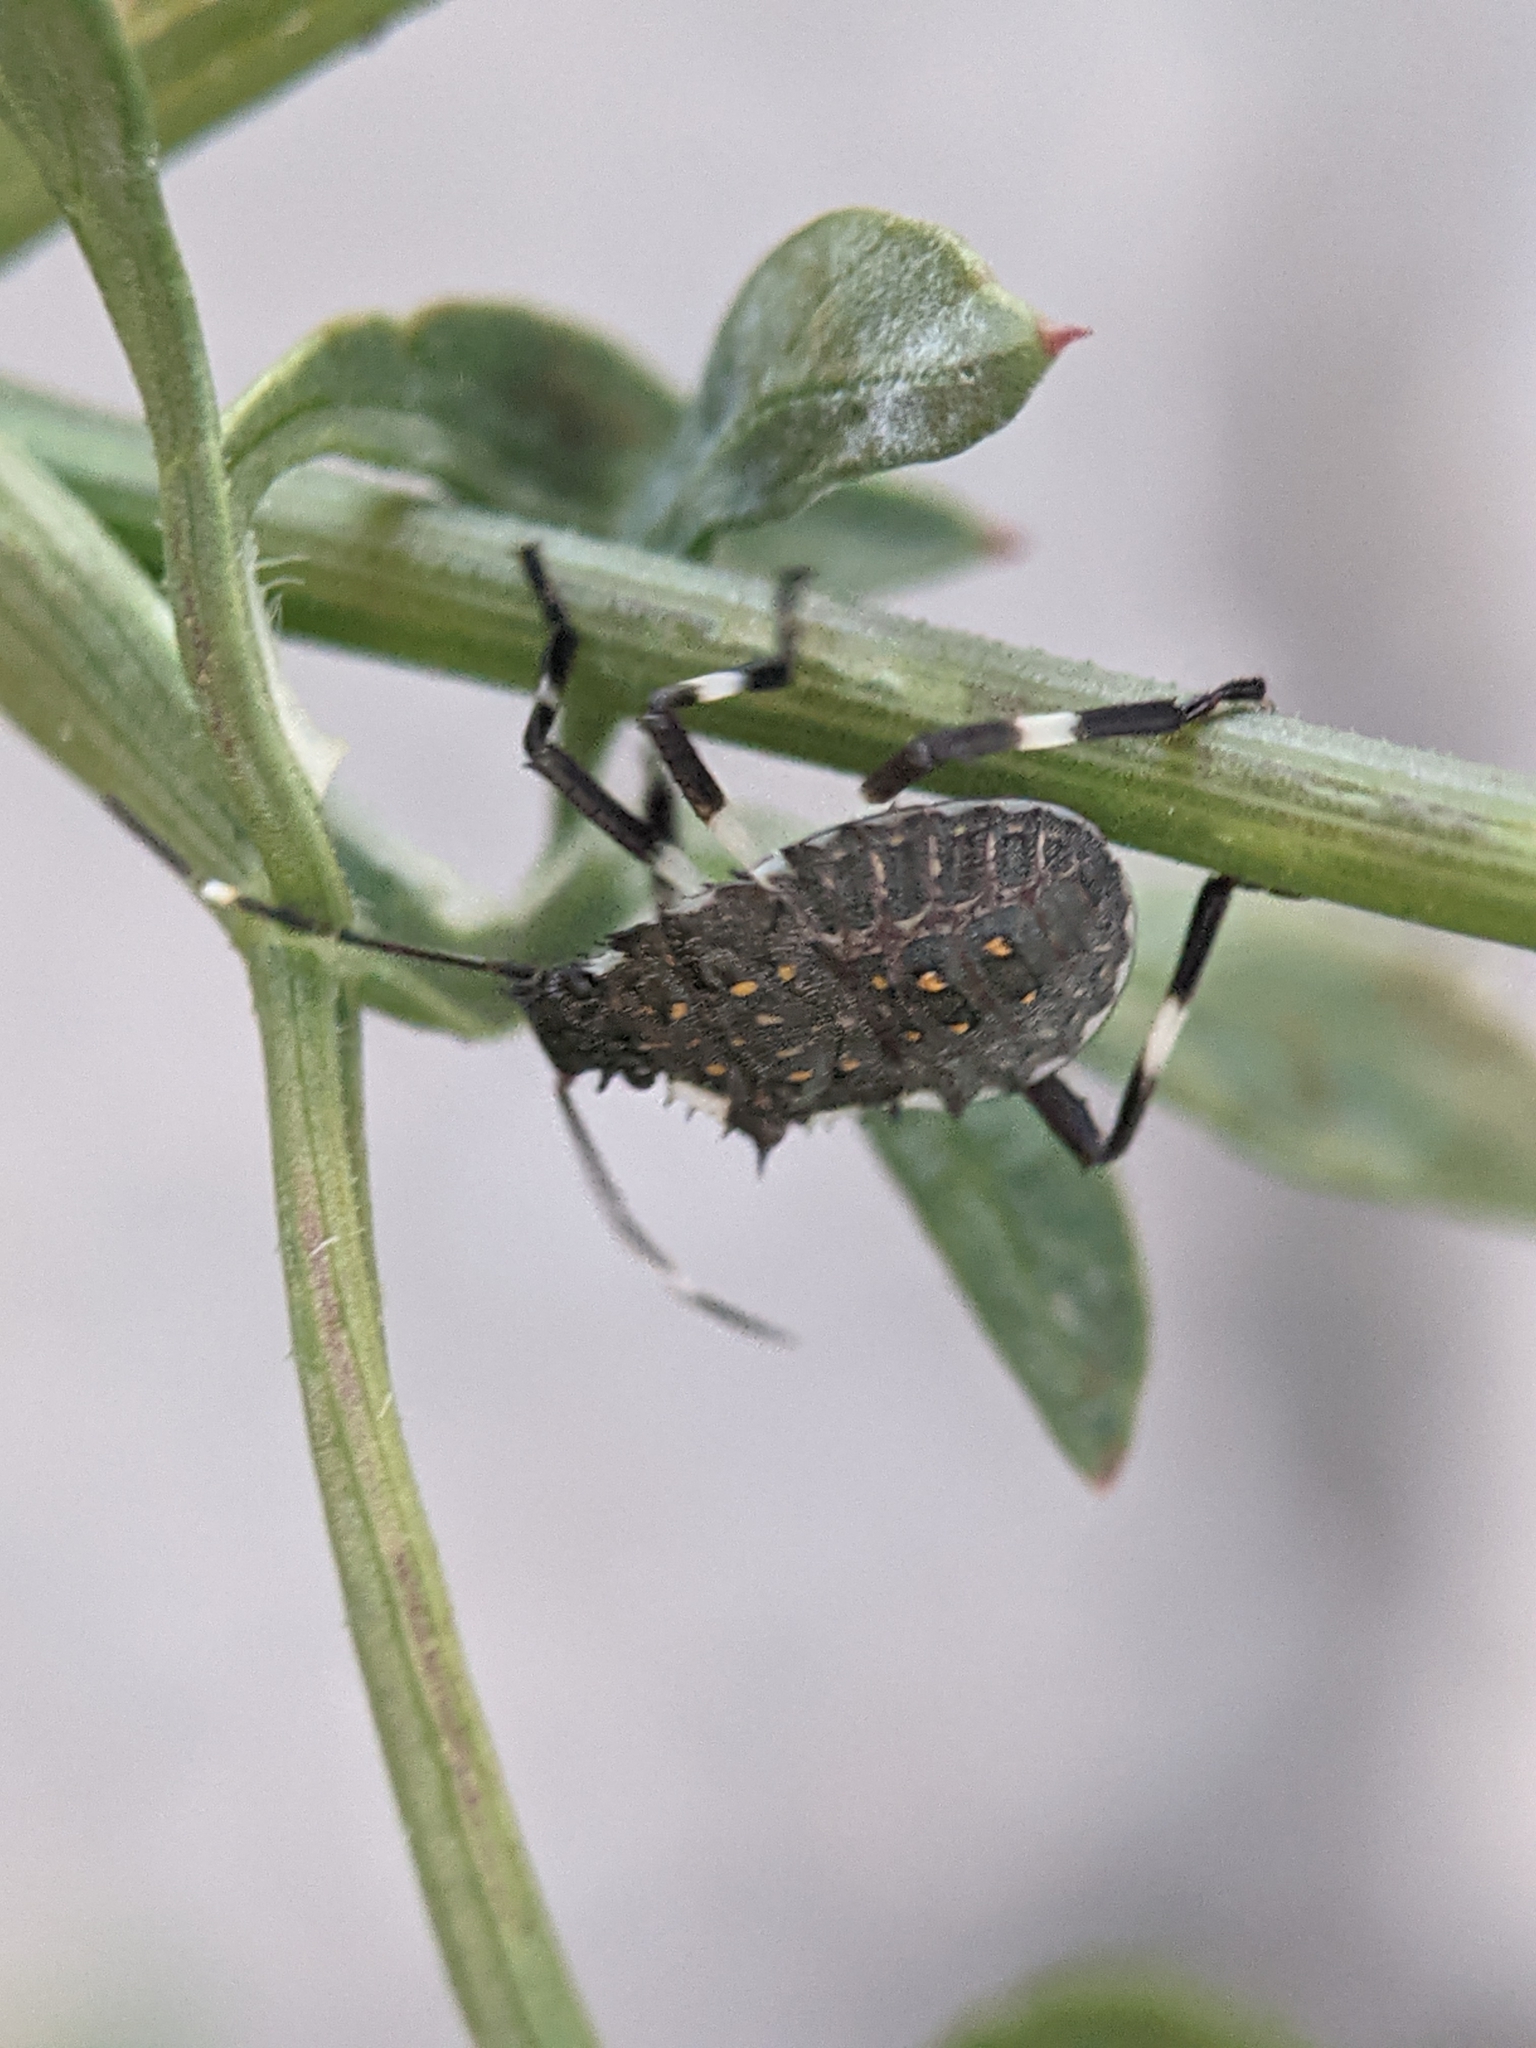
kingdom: Animalia
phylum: Arthropoda
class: Insecta
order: Hemiptera
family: Pentatomidae
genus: Halyomorpha
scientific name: Halyomorpha halys
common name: Brown marmorated stink bug
